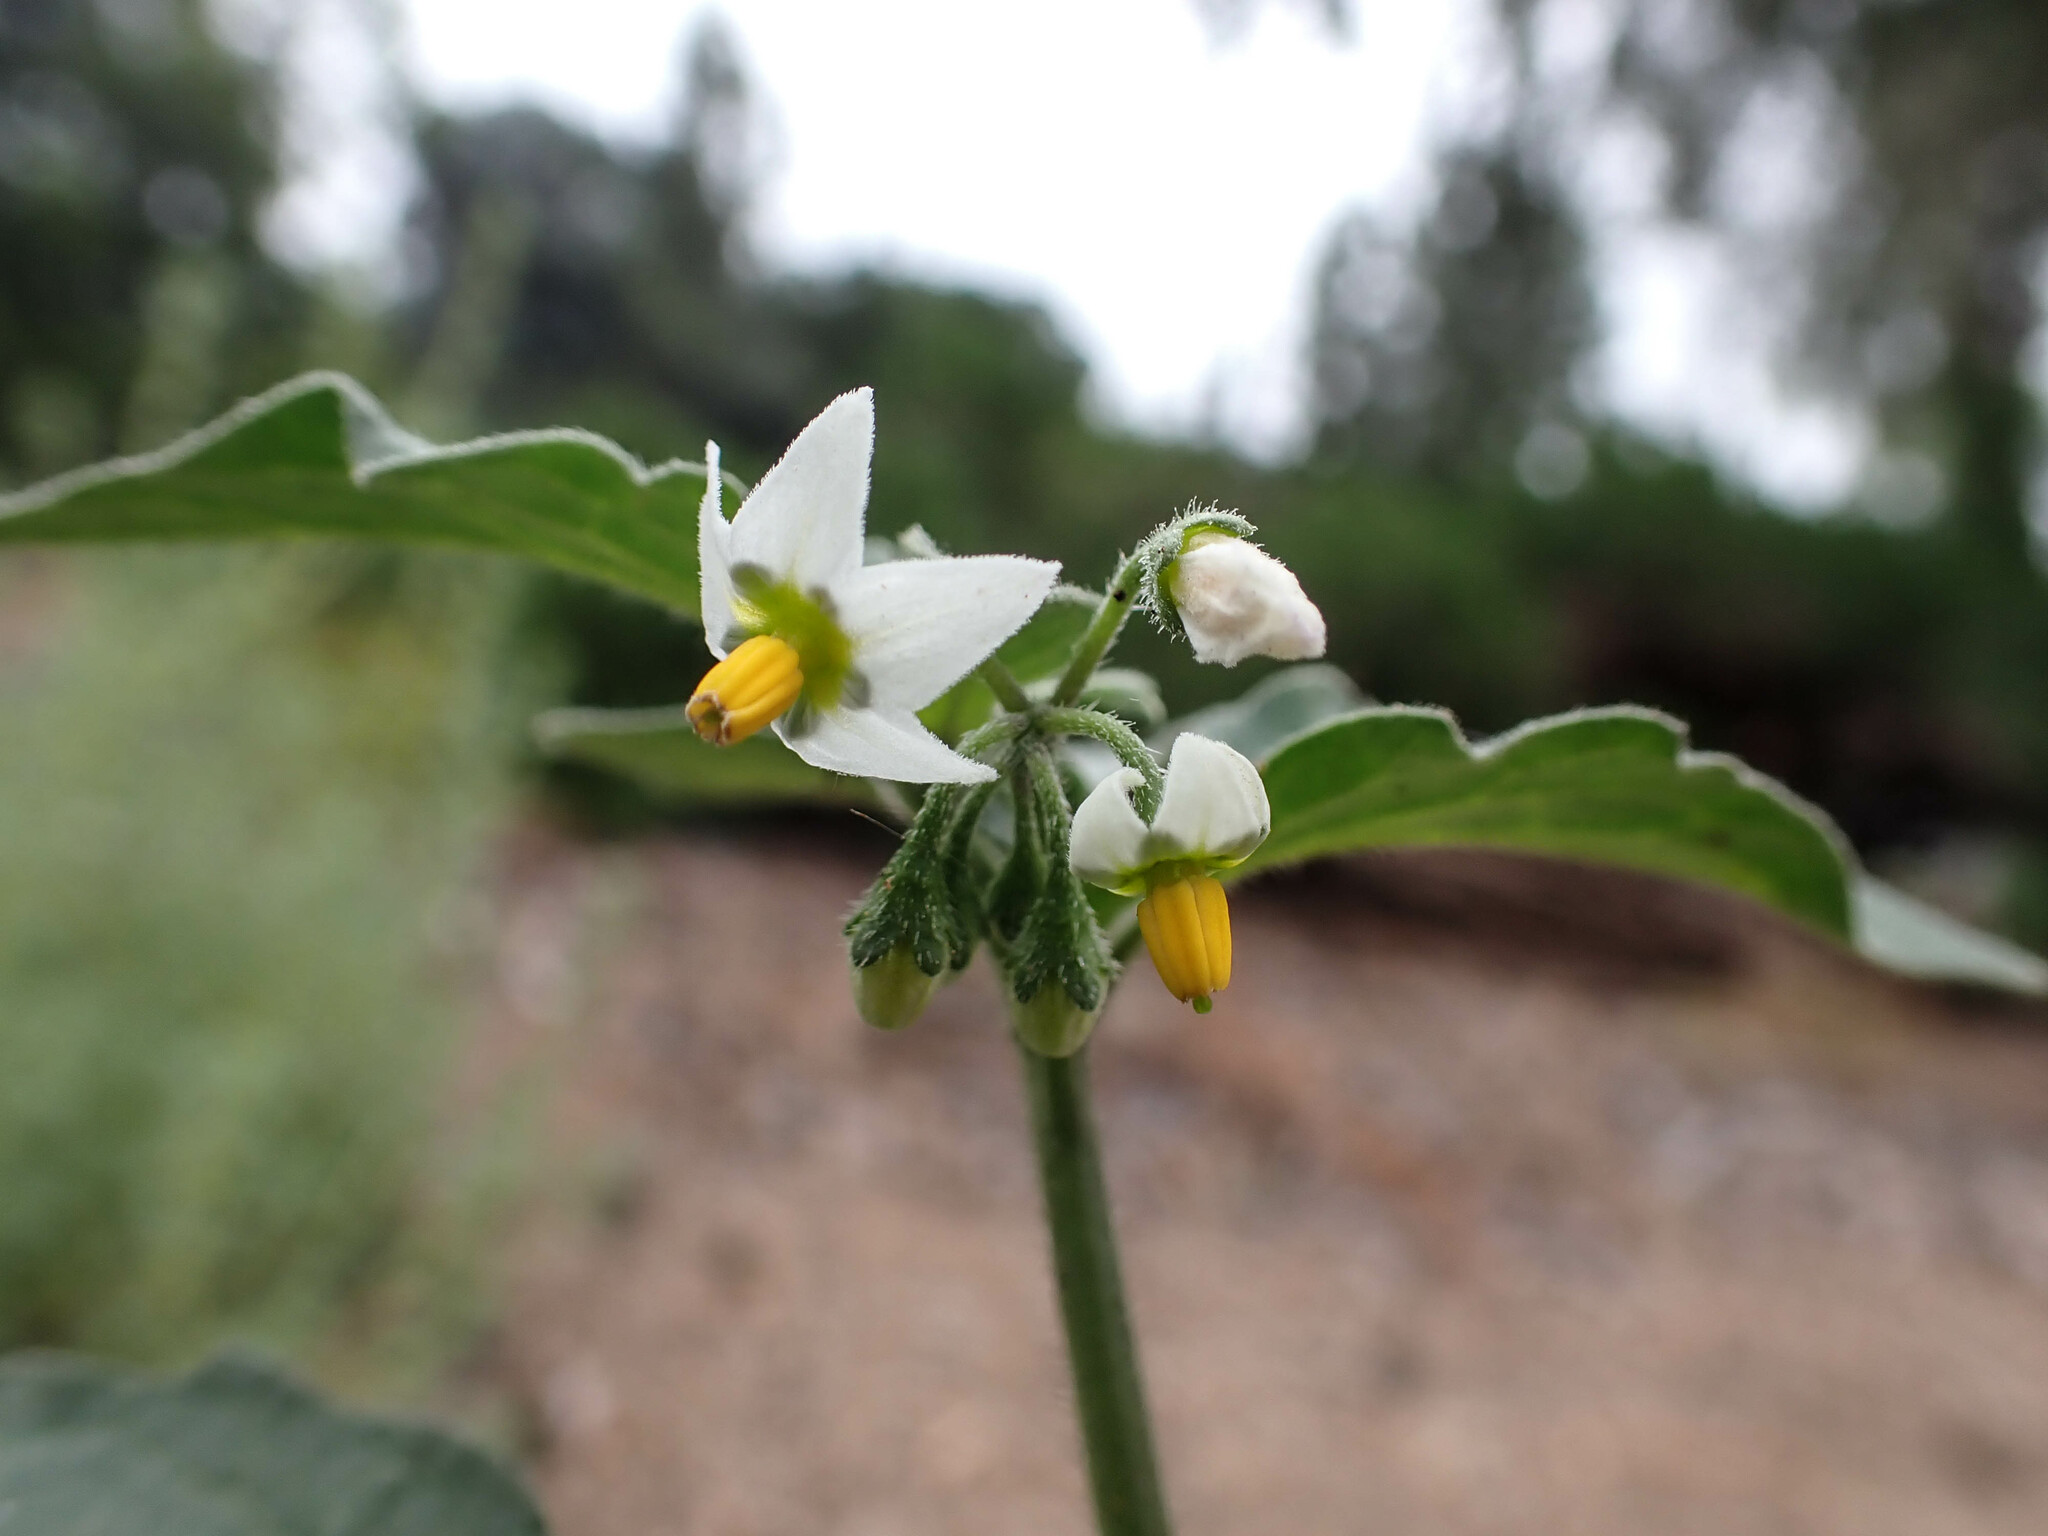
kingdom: Plantae
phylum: Tracheophyta
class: Magnoliopsida
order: Solanales
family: Solanaceae
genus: Solanum
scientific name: Solanum nigrum
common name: Black nightshade
